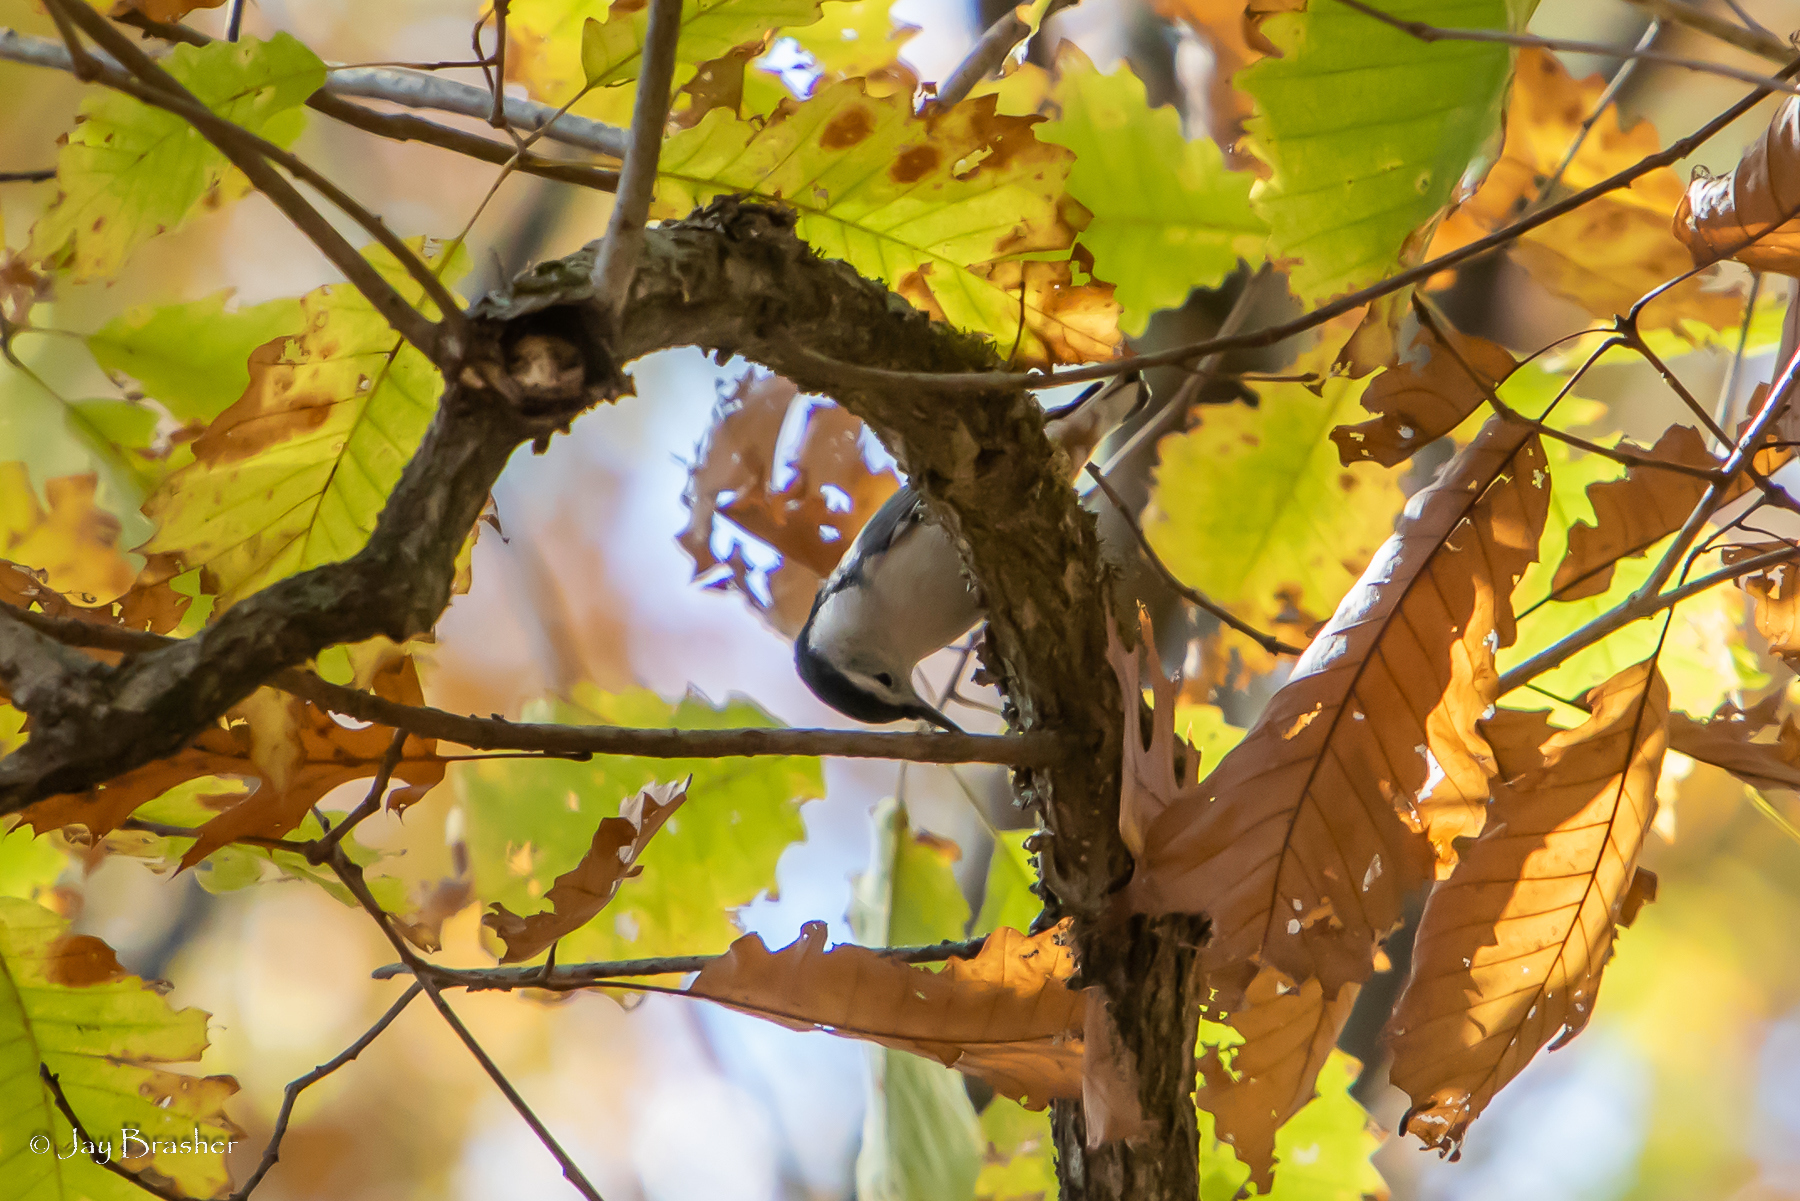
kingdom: Animalia
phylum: Chordata
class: Aves
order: Passeriformes
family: Sittidae
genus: Sitta
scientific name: Sitta carolinensis
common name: White-breasted nuthatch
